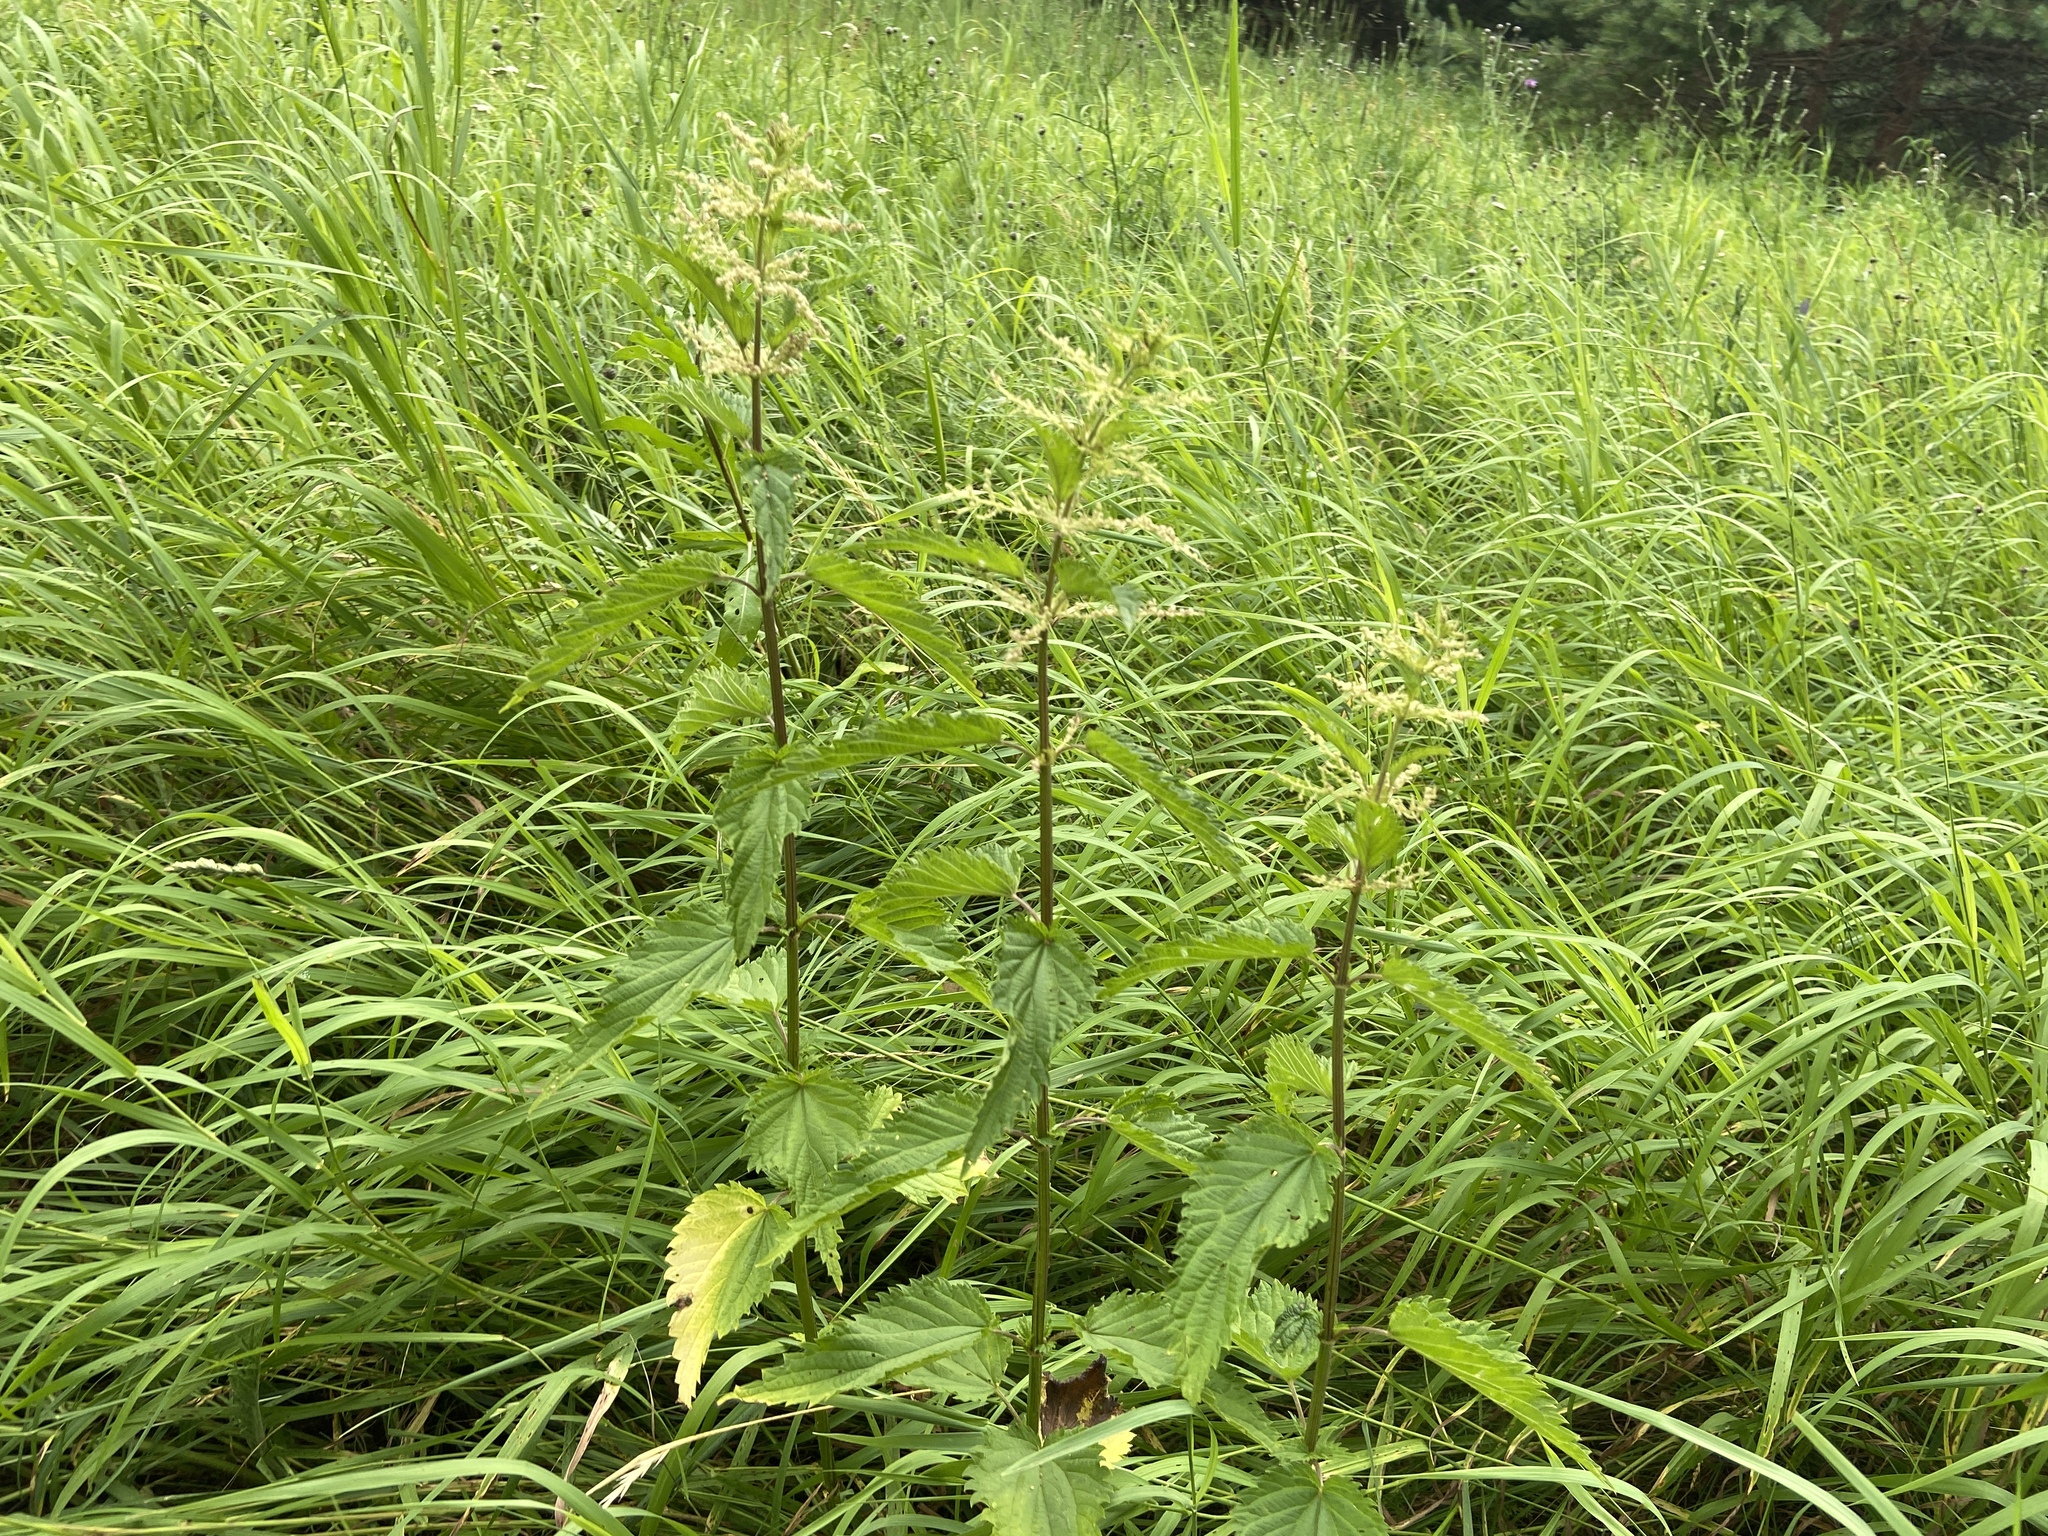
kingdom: Plantae
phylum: Tracheophyta
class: Magnoliopsida
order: Rosales
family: Urticaceae
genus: Urtica
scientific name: Urtica dioica
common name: Common nettle
